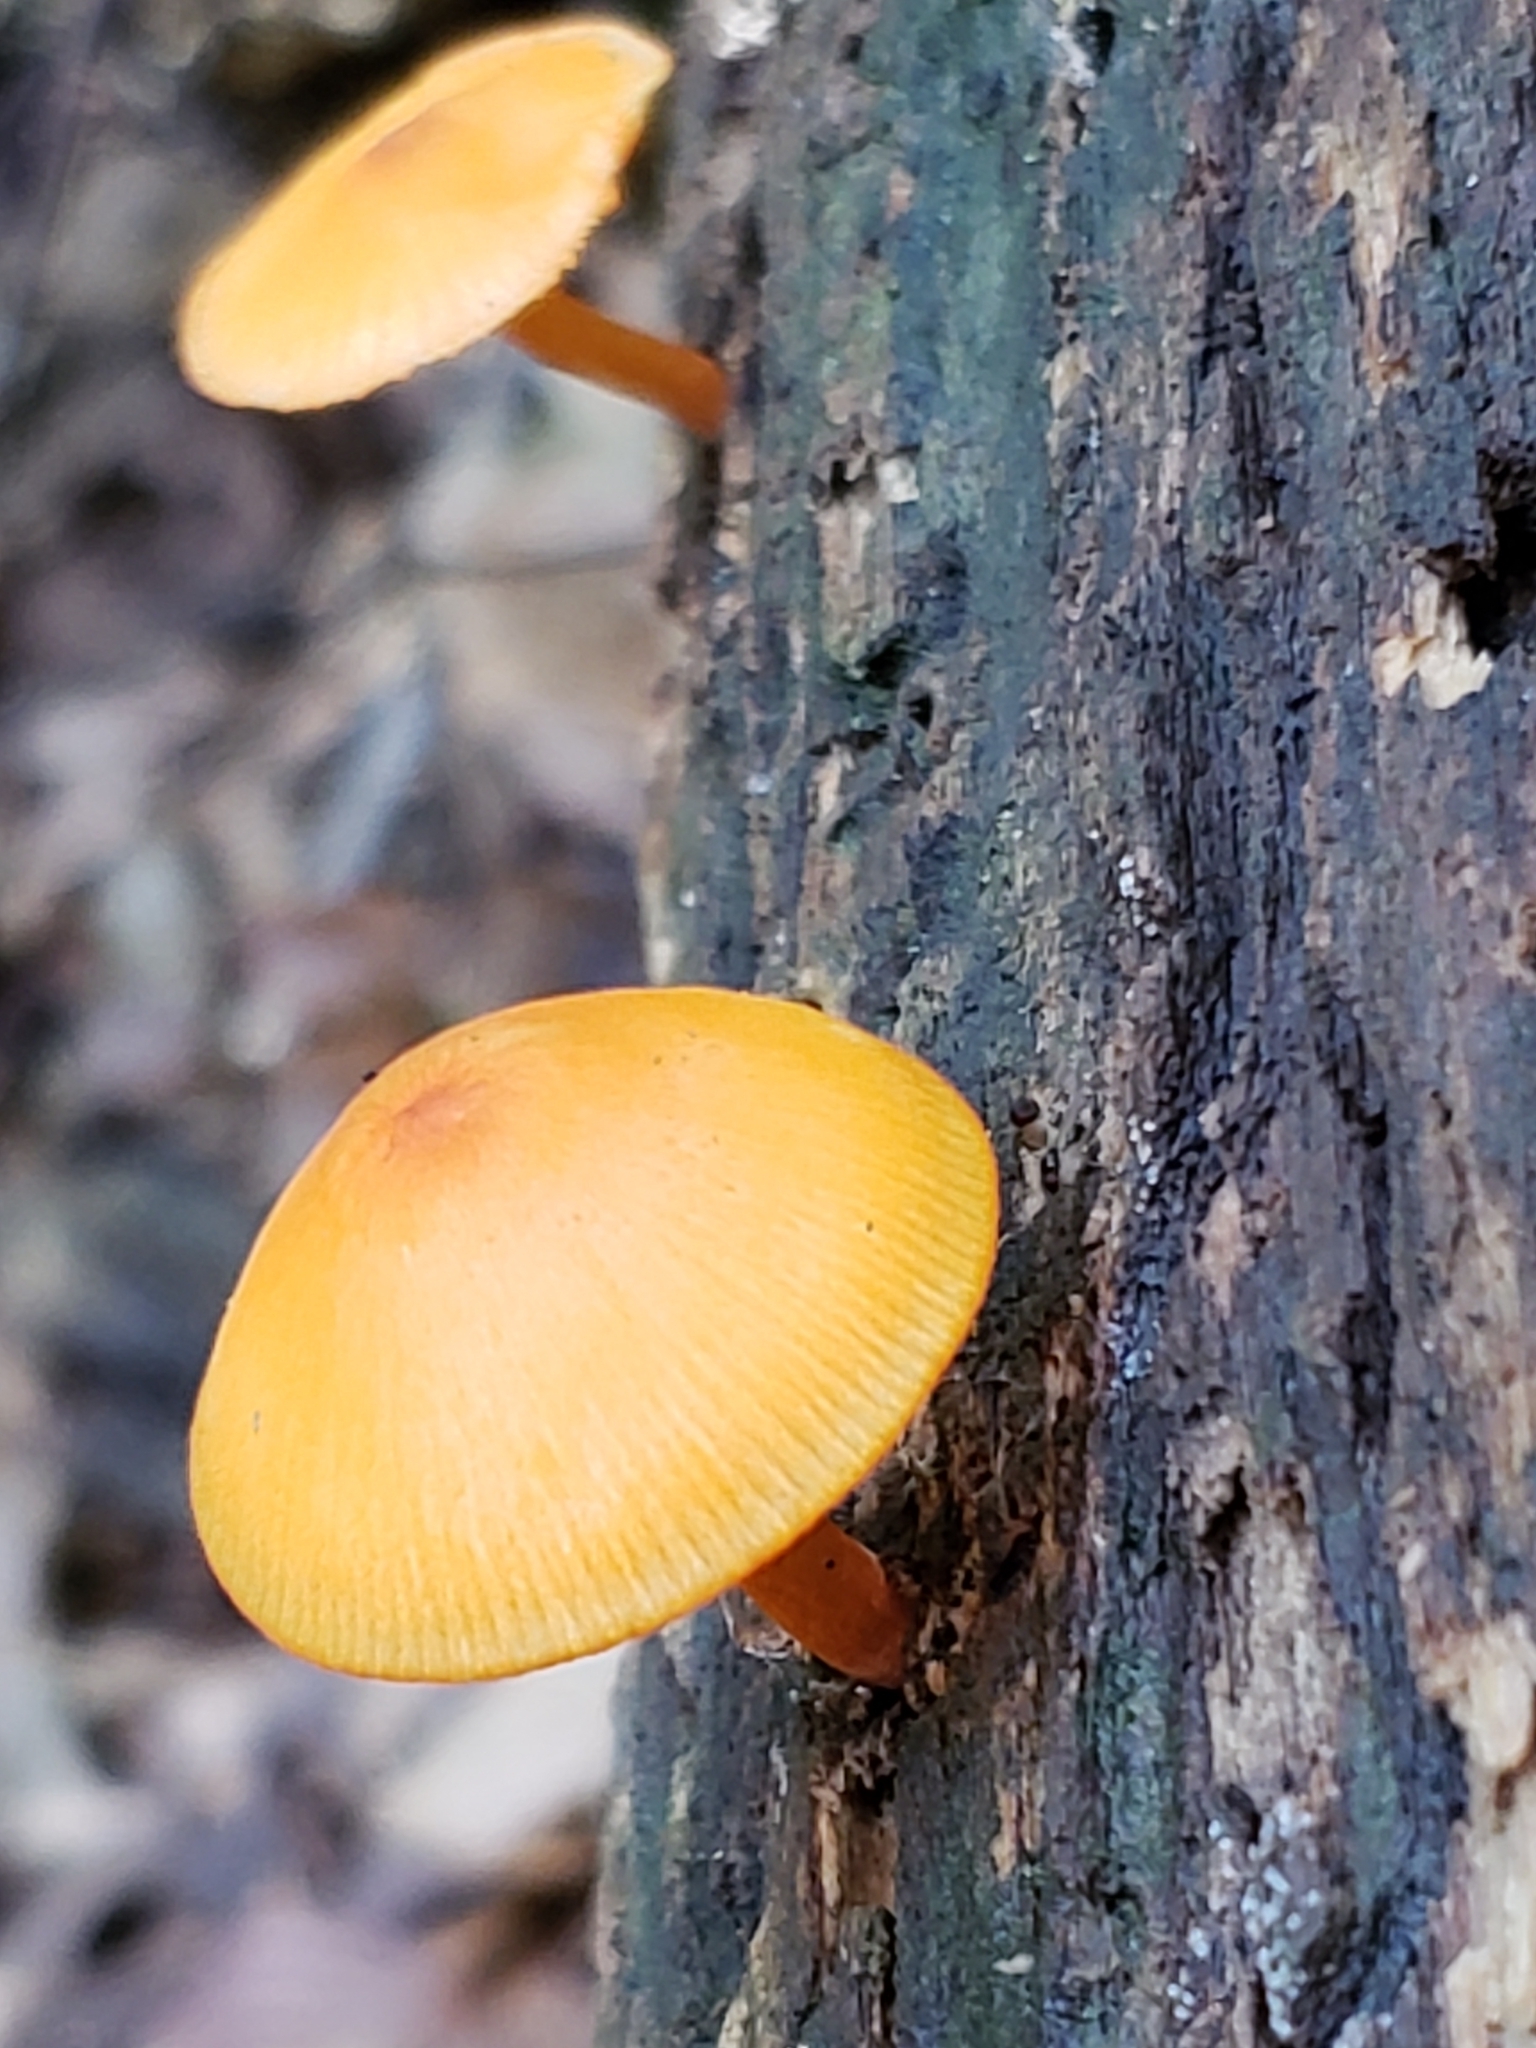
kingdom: Fungi
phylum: Basidiomycota
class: Agaricomycetes
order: Agaricales
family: Mycenaceae
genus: Mycena
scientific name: Mycena leaiana
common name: Orange mycena
